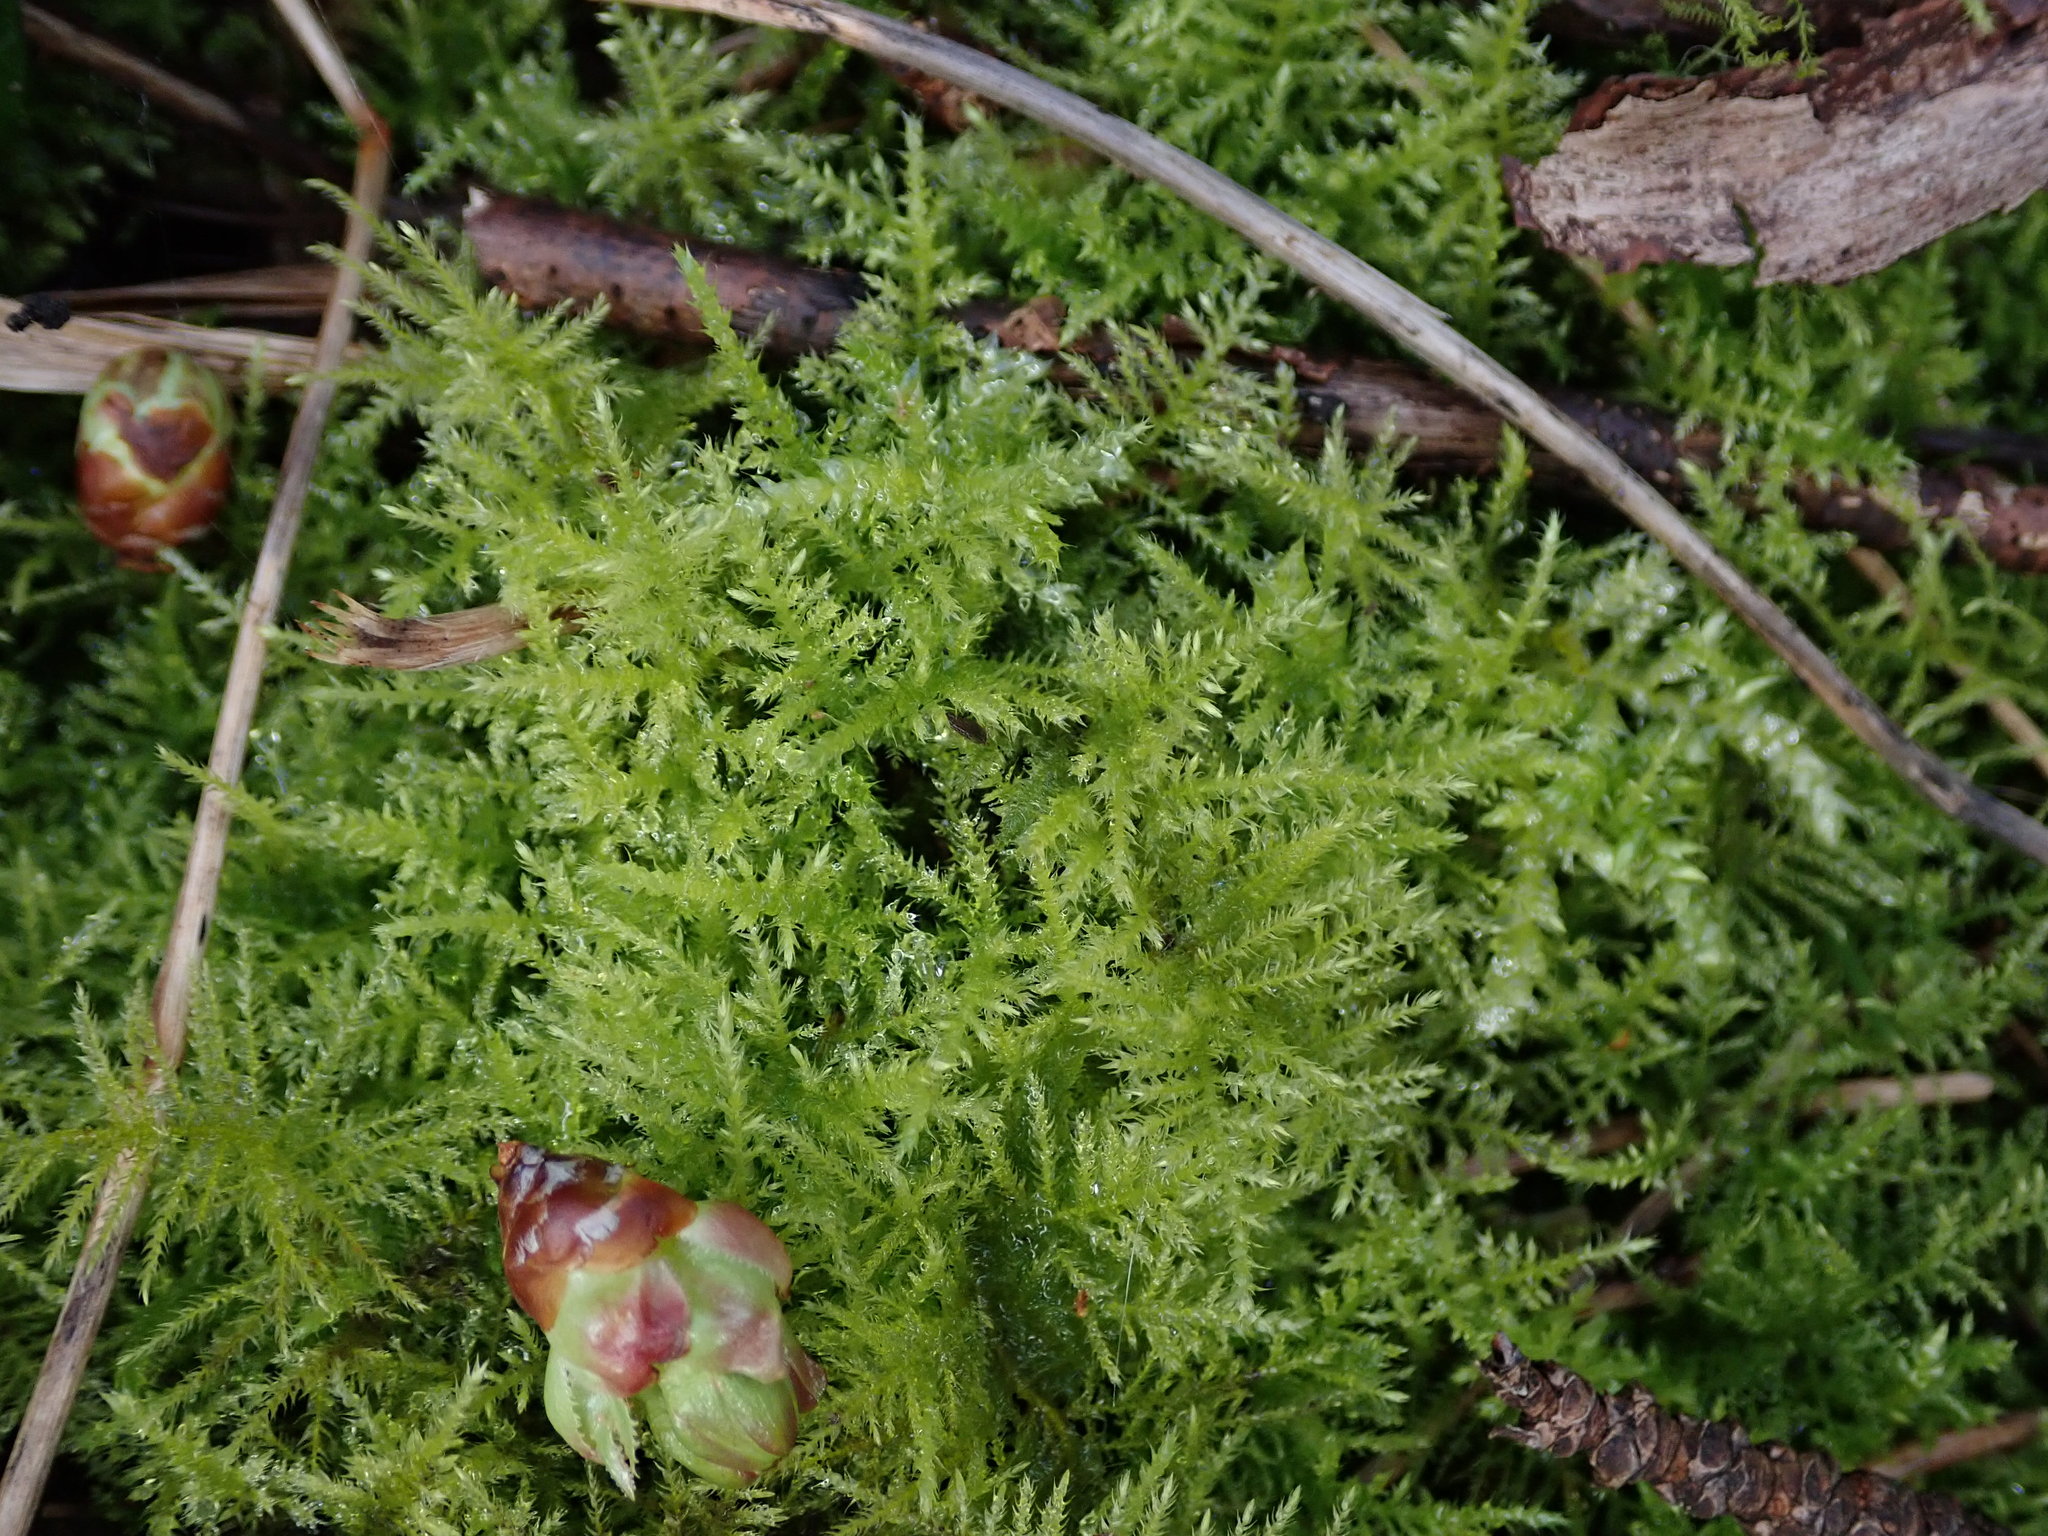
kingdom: Plantae
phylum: Bryophyta
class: Bryopsida
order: Hypnales
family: Brachytheciaceae
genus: Kindbergia
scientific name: Kindbergia praelonga
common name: Slender beaked moss
